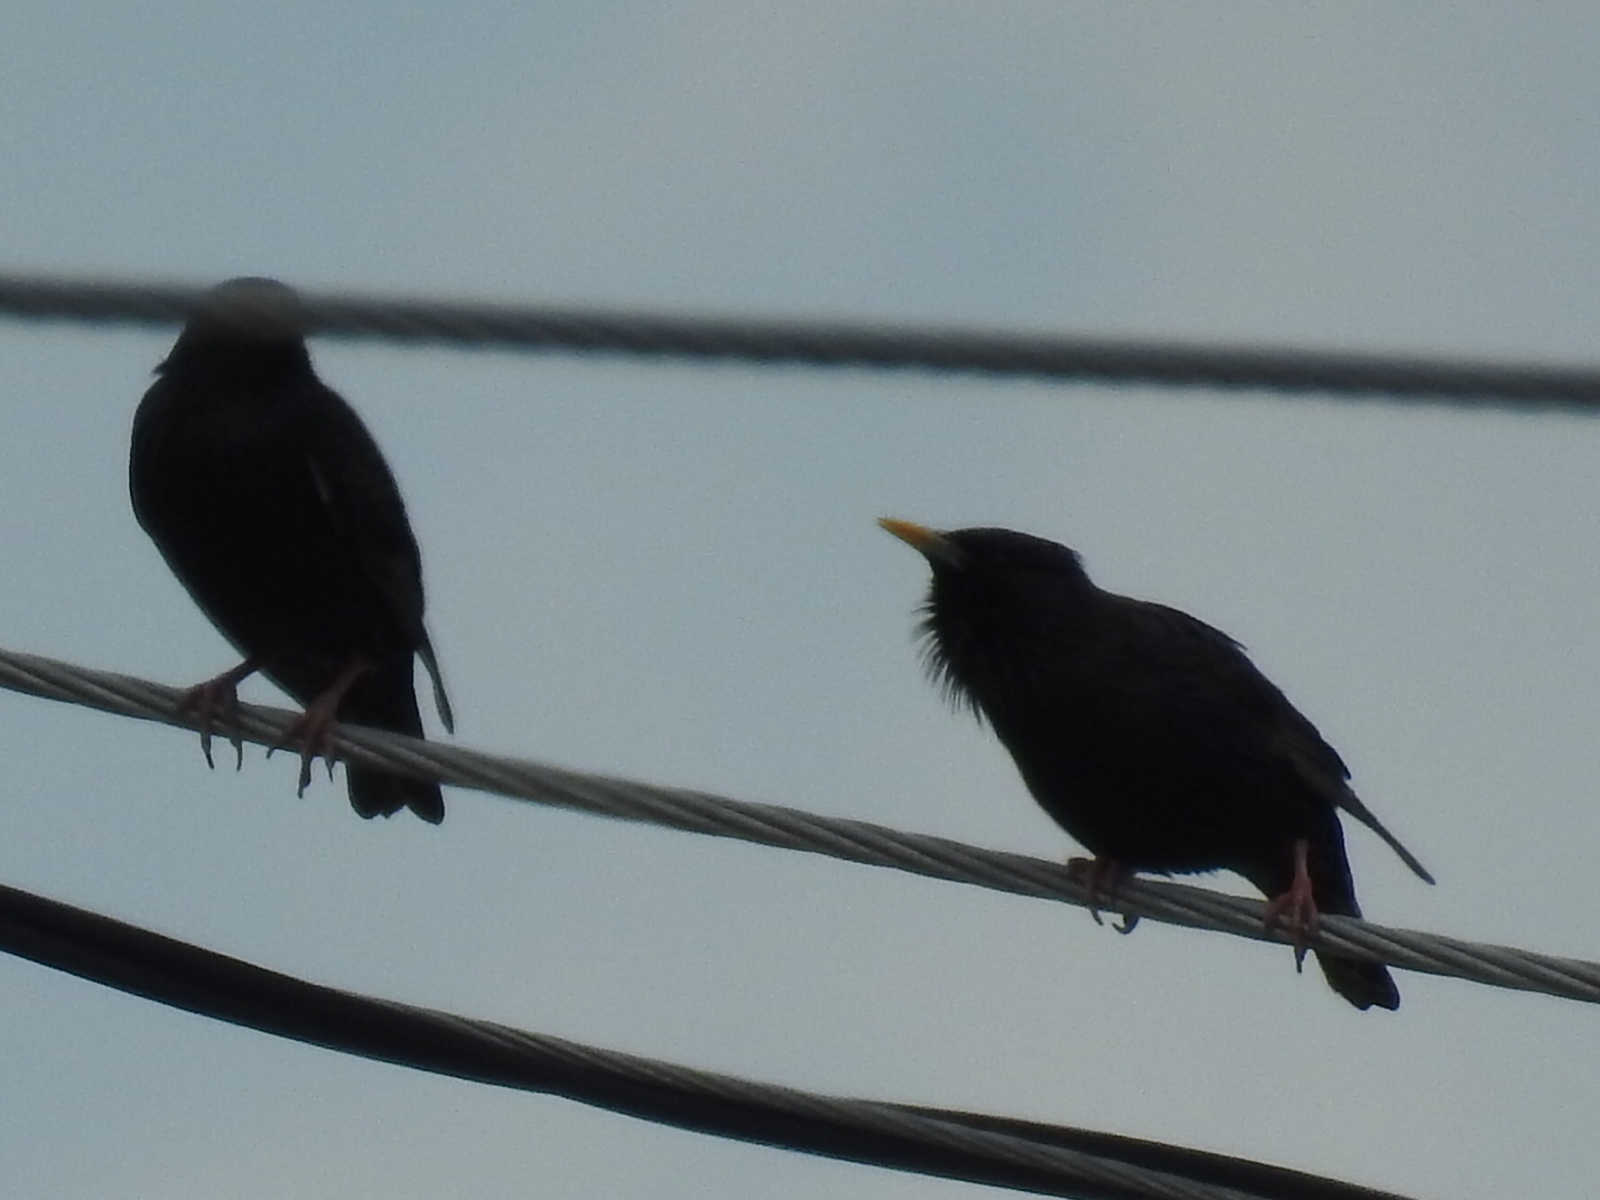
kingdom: Animalia
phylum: Chordata
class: Aves
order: Passeriformes
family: Sturnidae
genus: Sturnus
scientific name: Sturnus vulgaris
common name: Common starling
